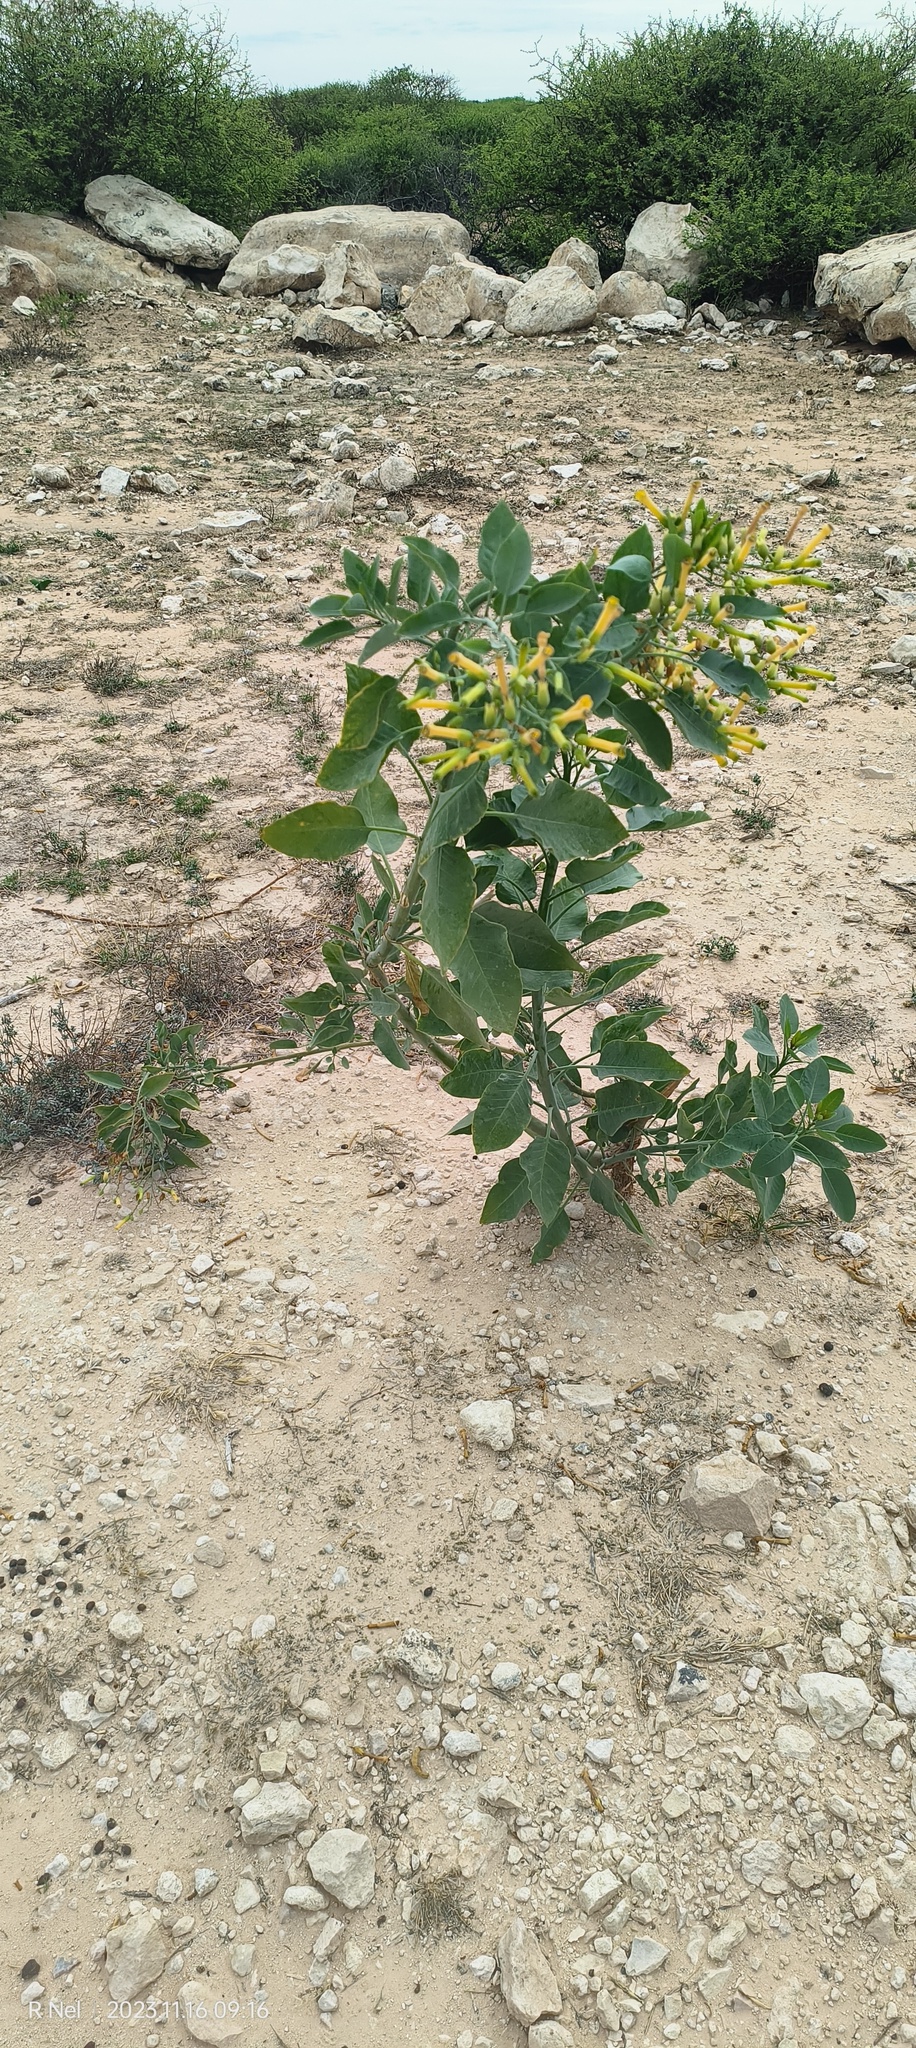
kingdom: Plantae
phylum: Tracheophyta
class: Magnoliopsida
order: Solanales
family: Solanaceae
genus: Nicotiana
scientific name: Nicotiana glauca
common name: Tree tobacco
